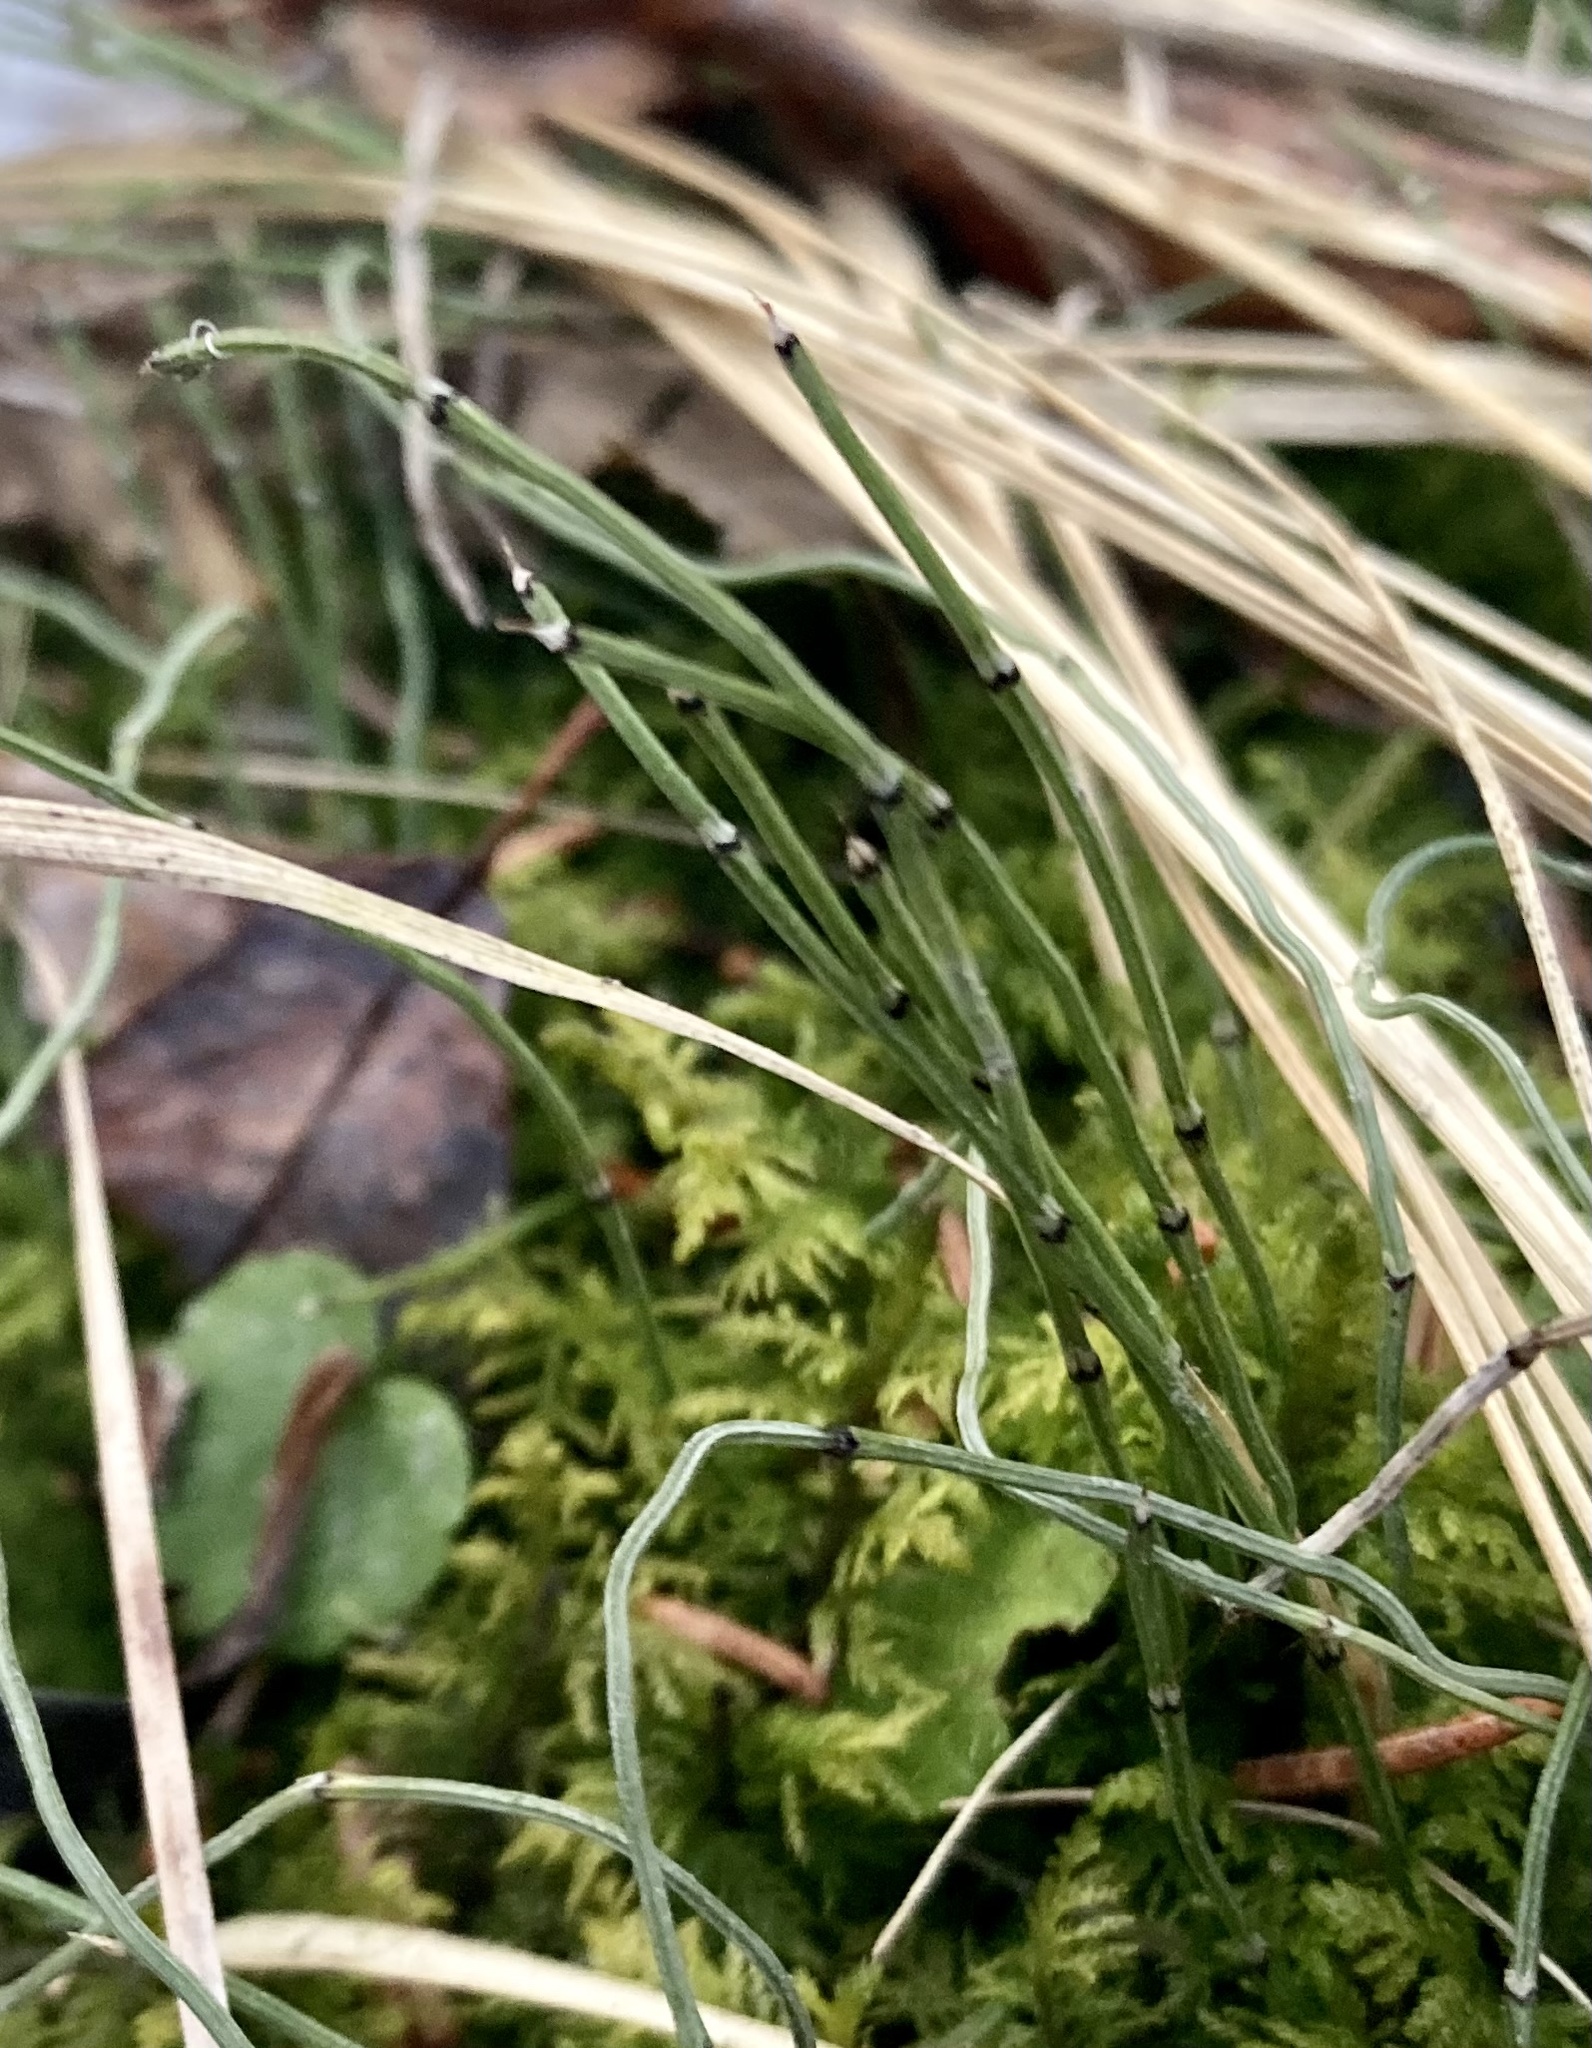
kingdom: Plantae
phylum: Tracheophyta
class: Polypodiopsida
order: Equisetales
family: Equisetaceae
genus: Equisetum
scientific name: Equisetum scirpoides
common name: Delicate horsetail
